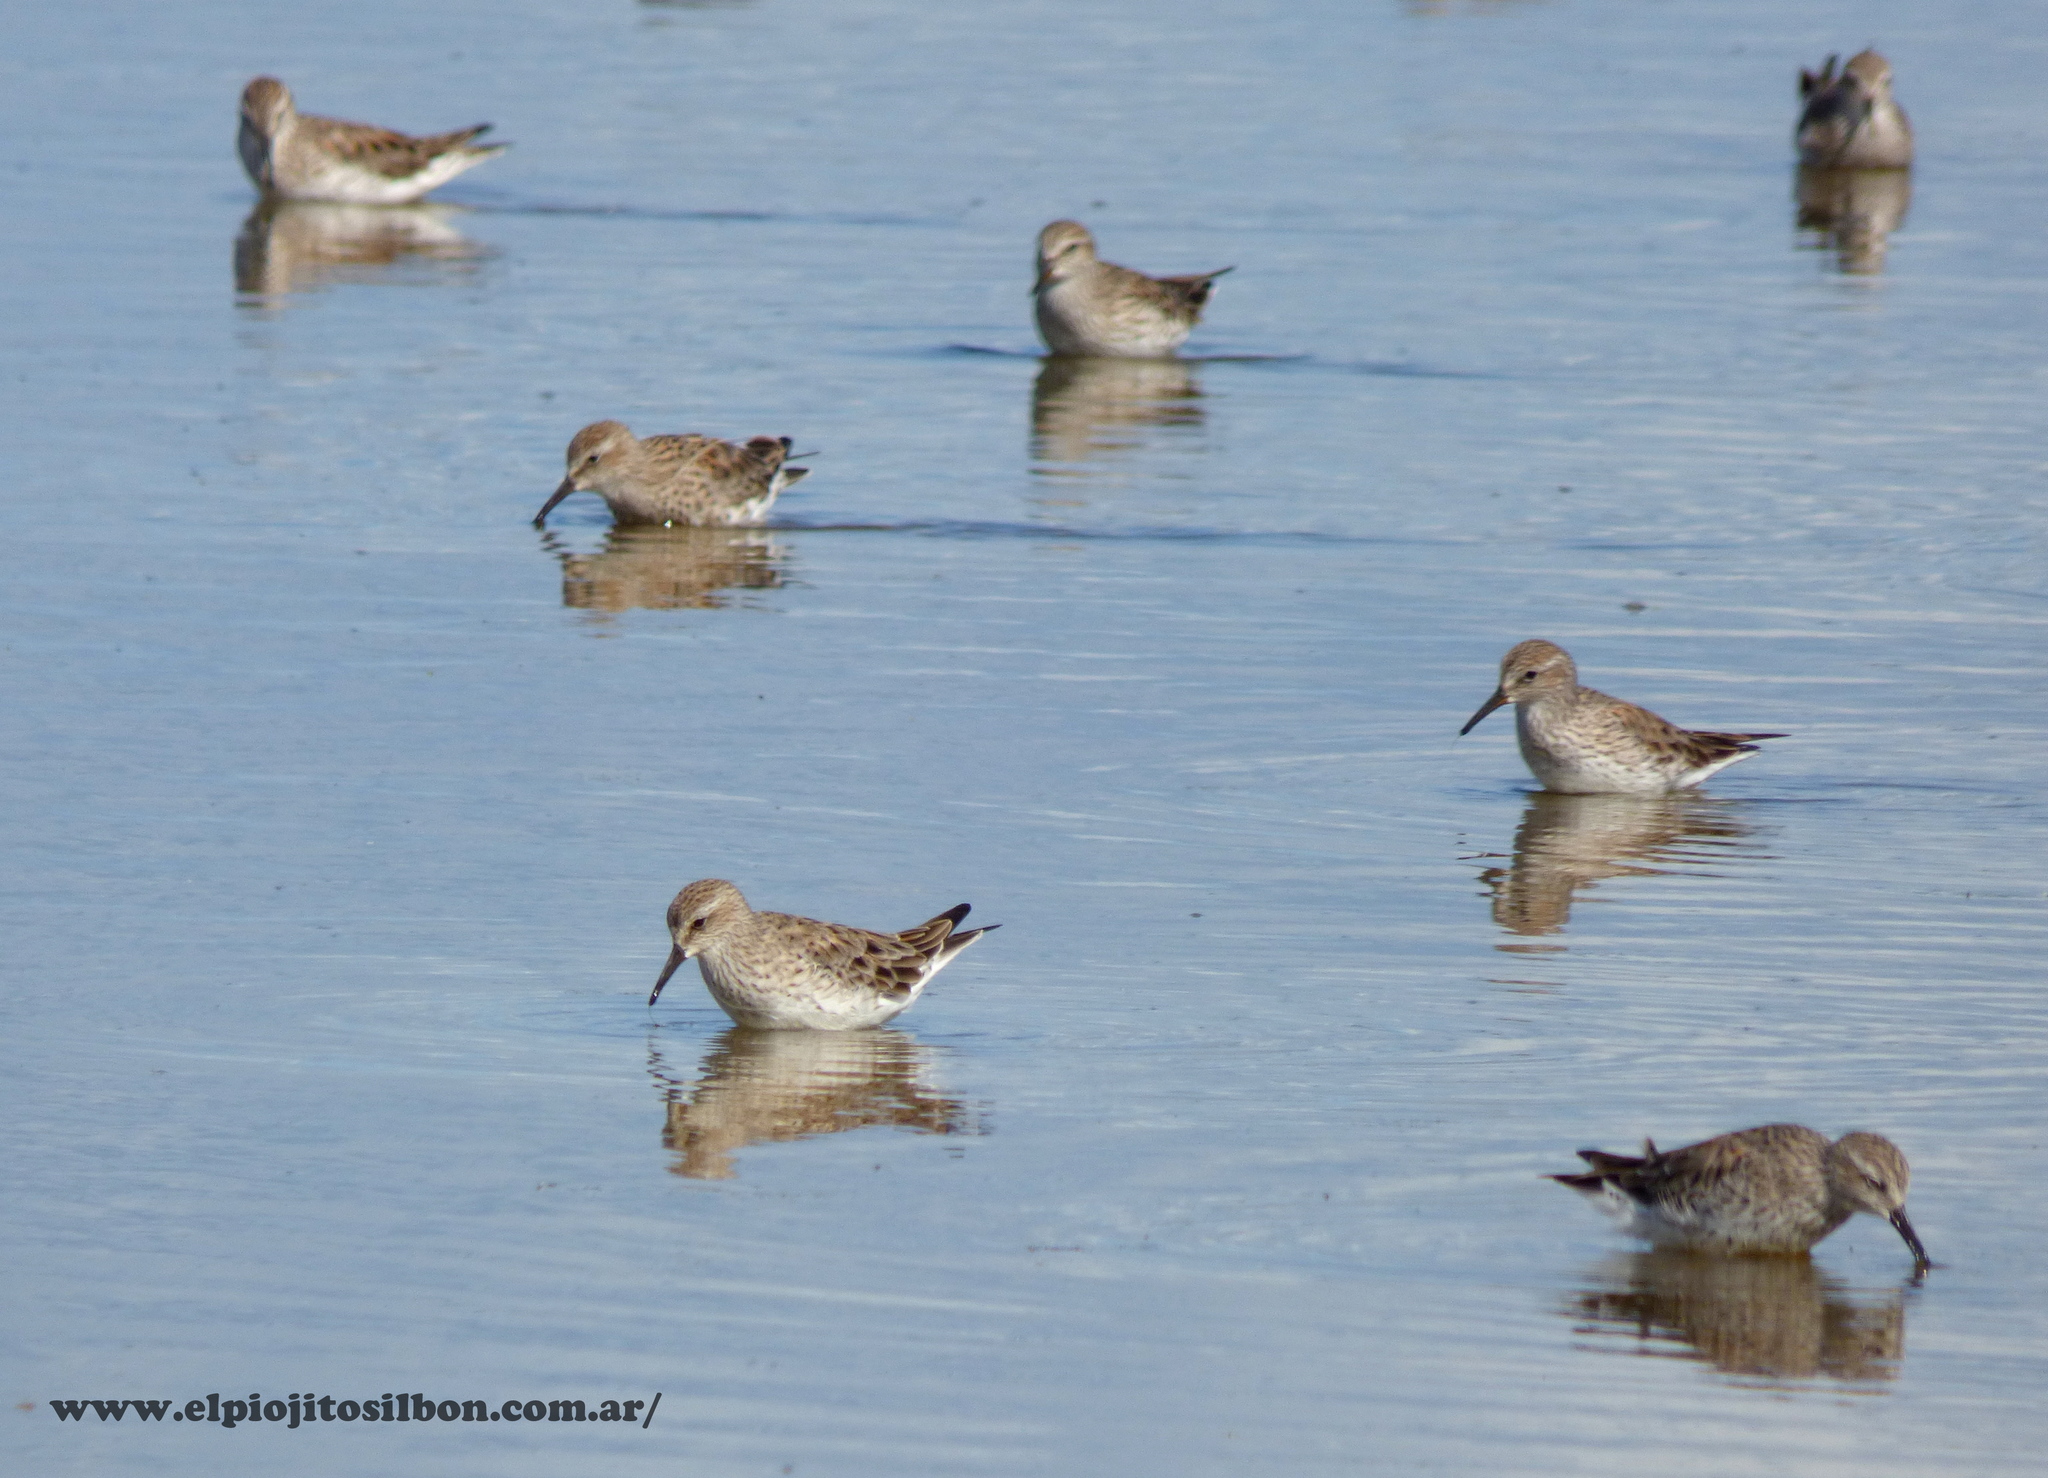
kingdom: Animalia
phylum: Chordata
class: Aves
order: Charadriiformes
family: Scolopacidae
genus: Calidris
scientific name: Calidris fuscicollis
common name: White-rumped sandpiper
